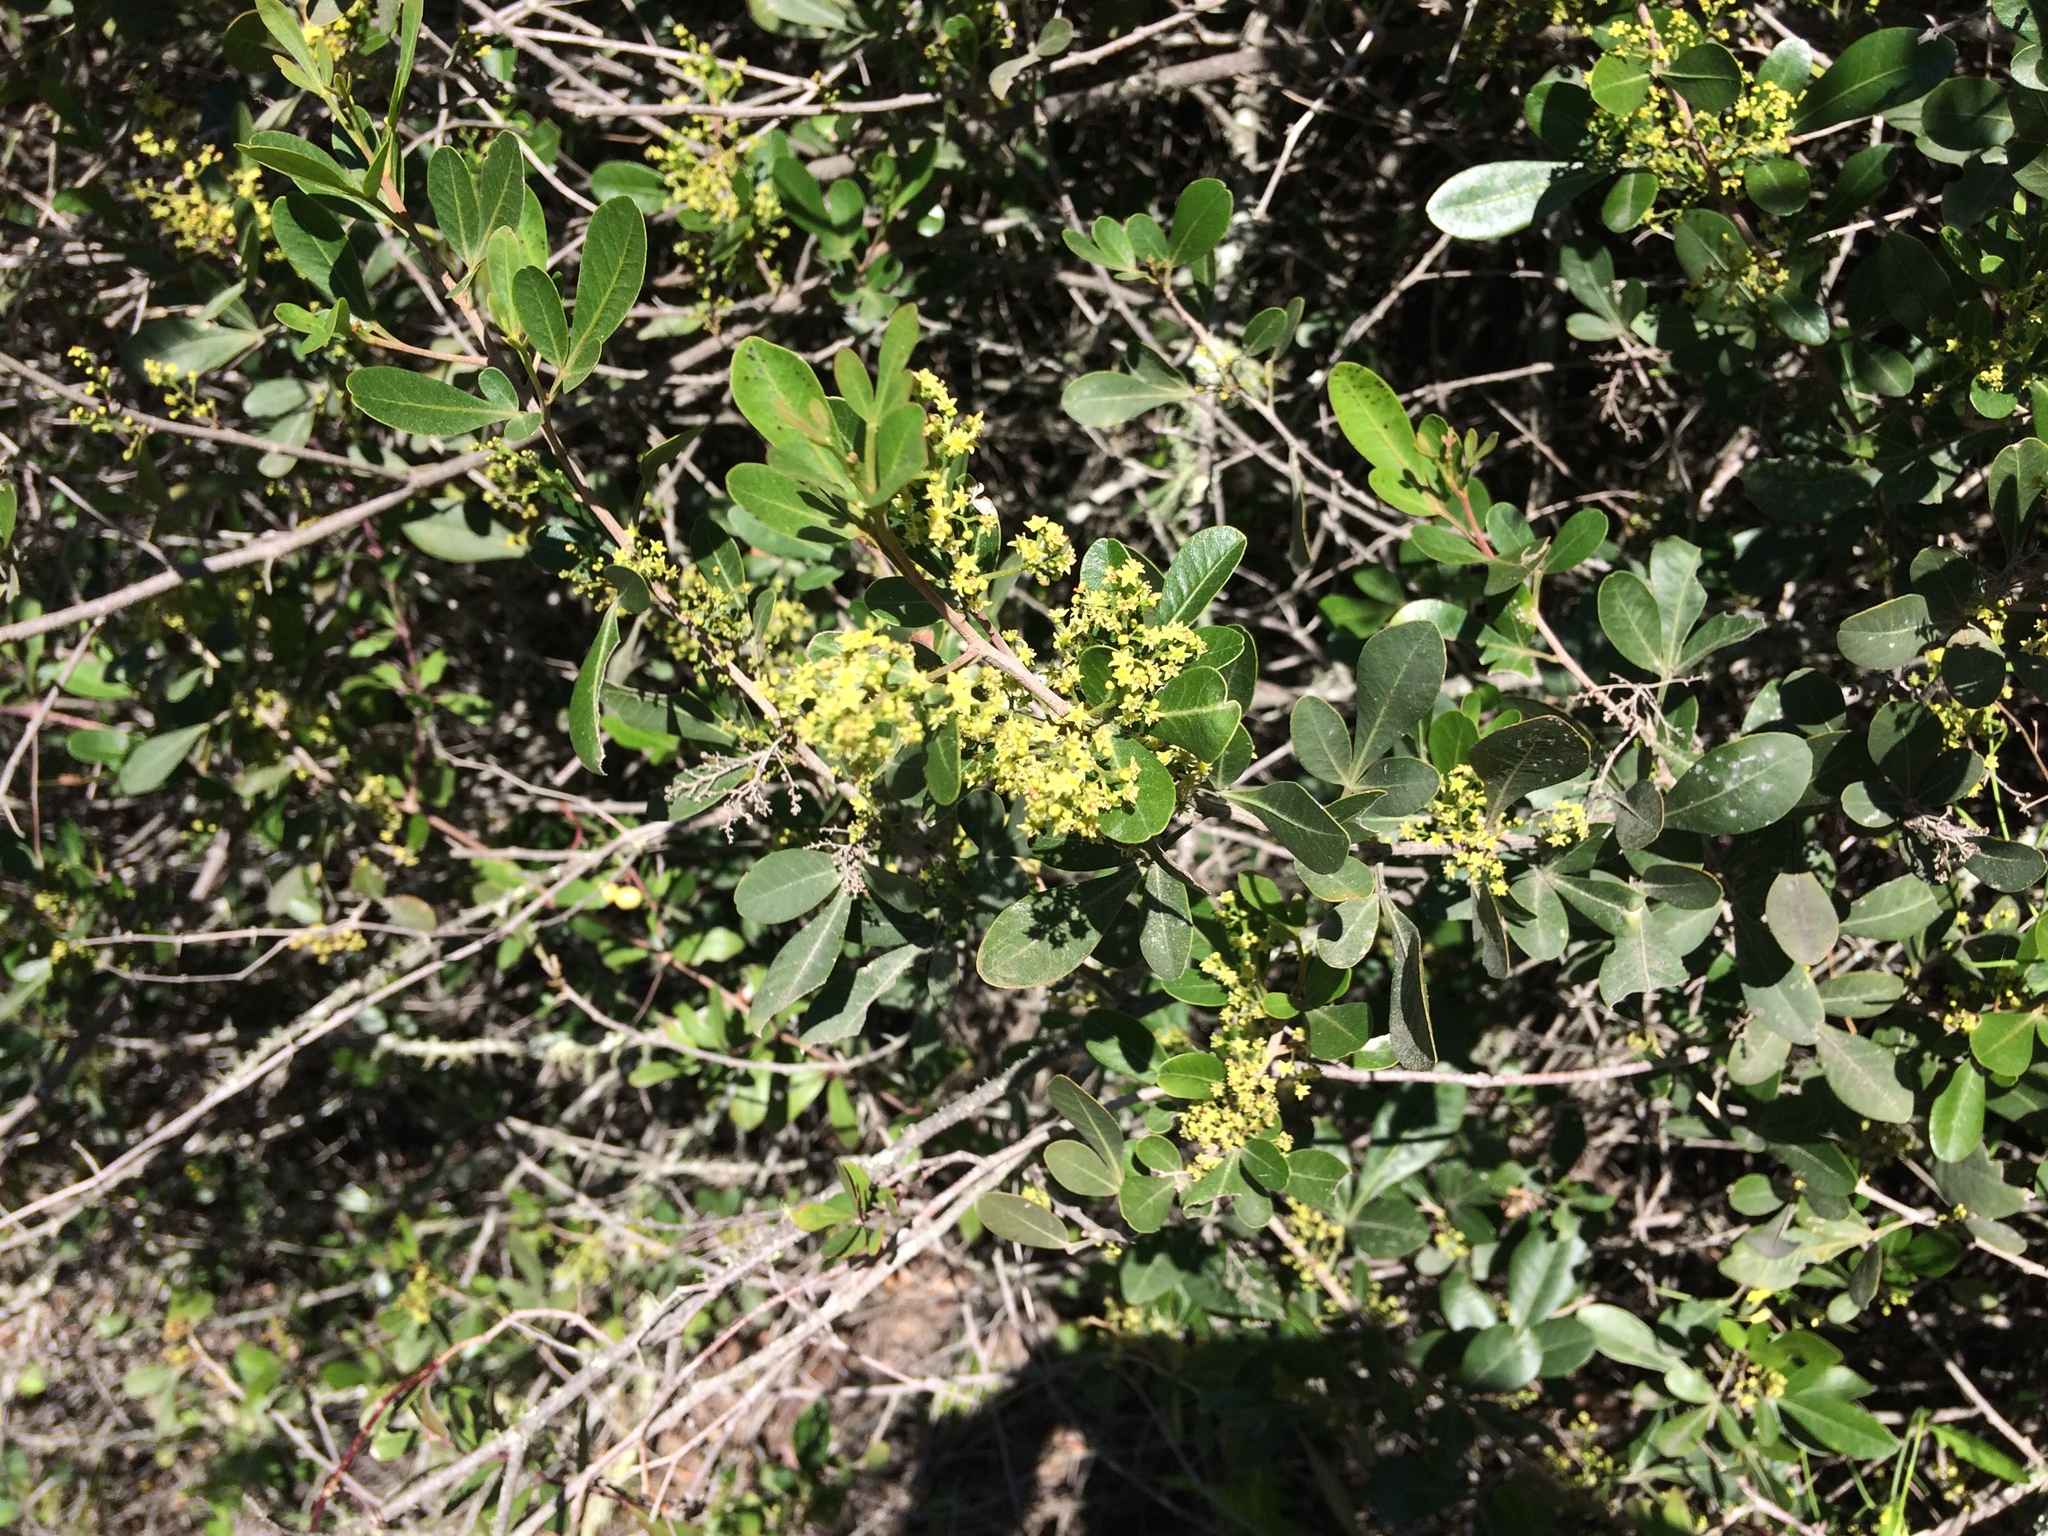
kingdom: Plantae
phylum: Tracheophyta
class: Magnoliopsida
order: Sapindales
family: Anacardiaceae
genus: Searsia
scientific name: Searsia lucida
